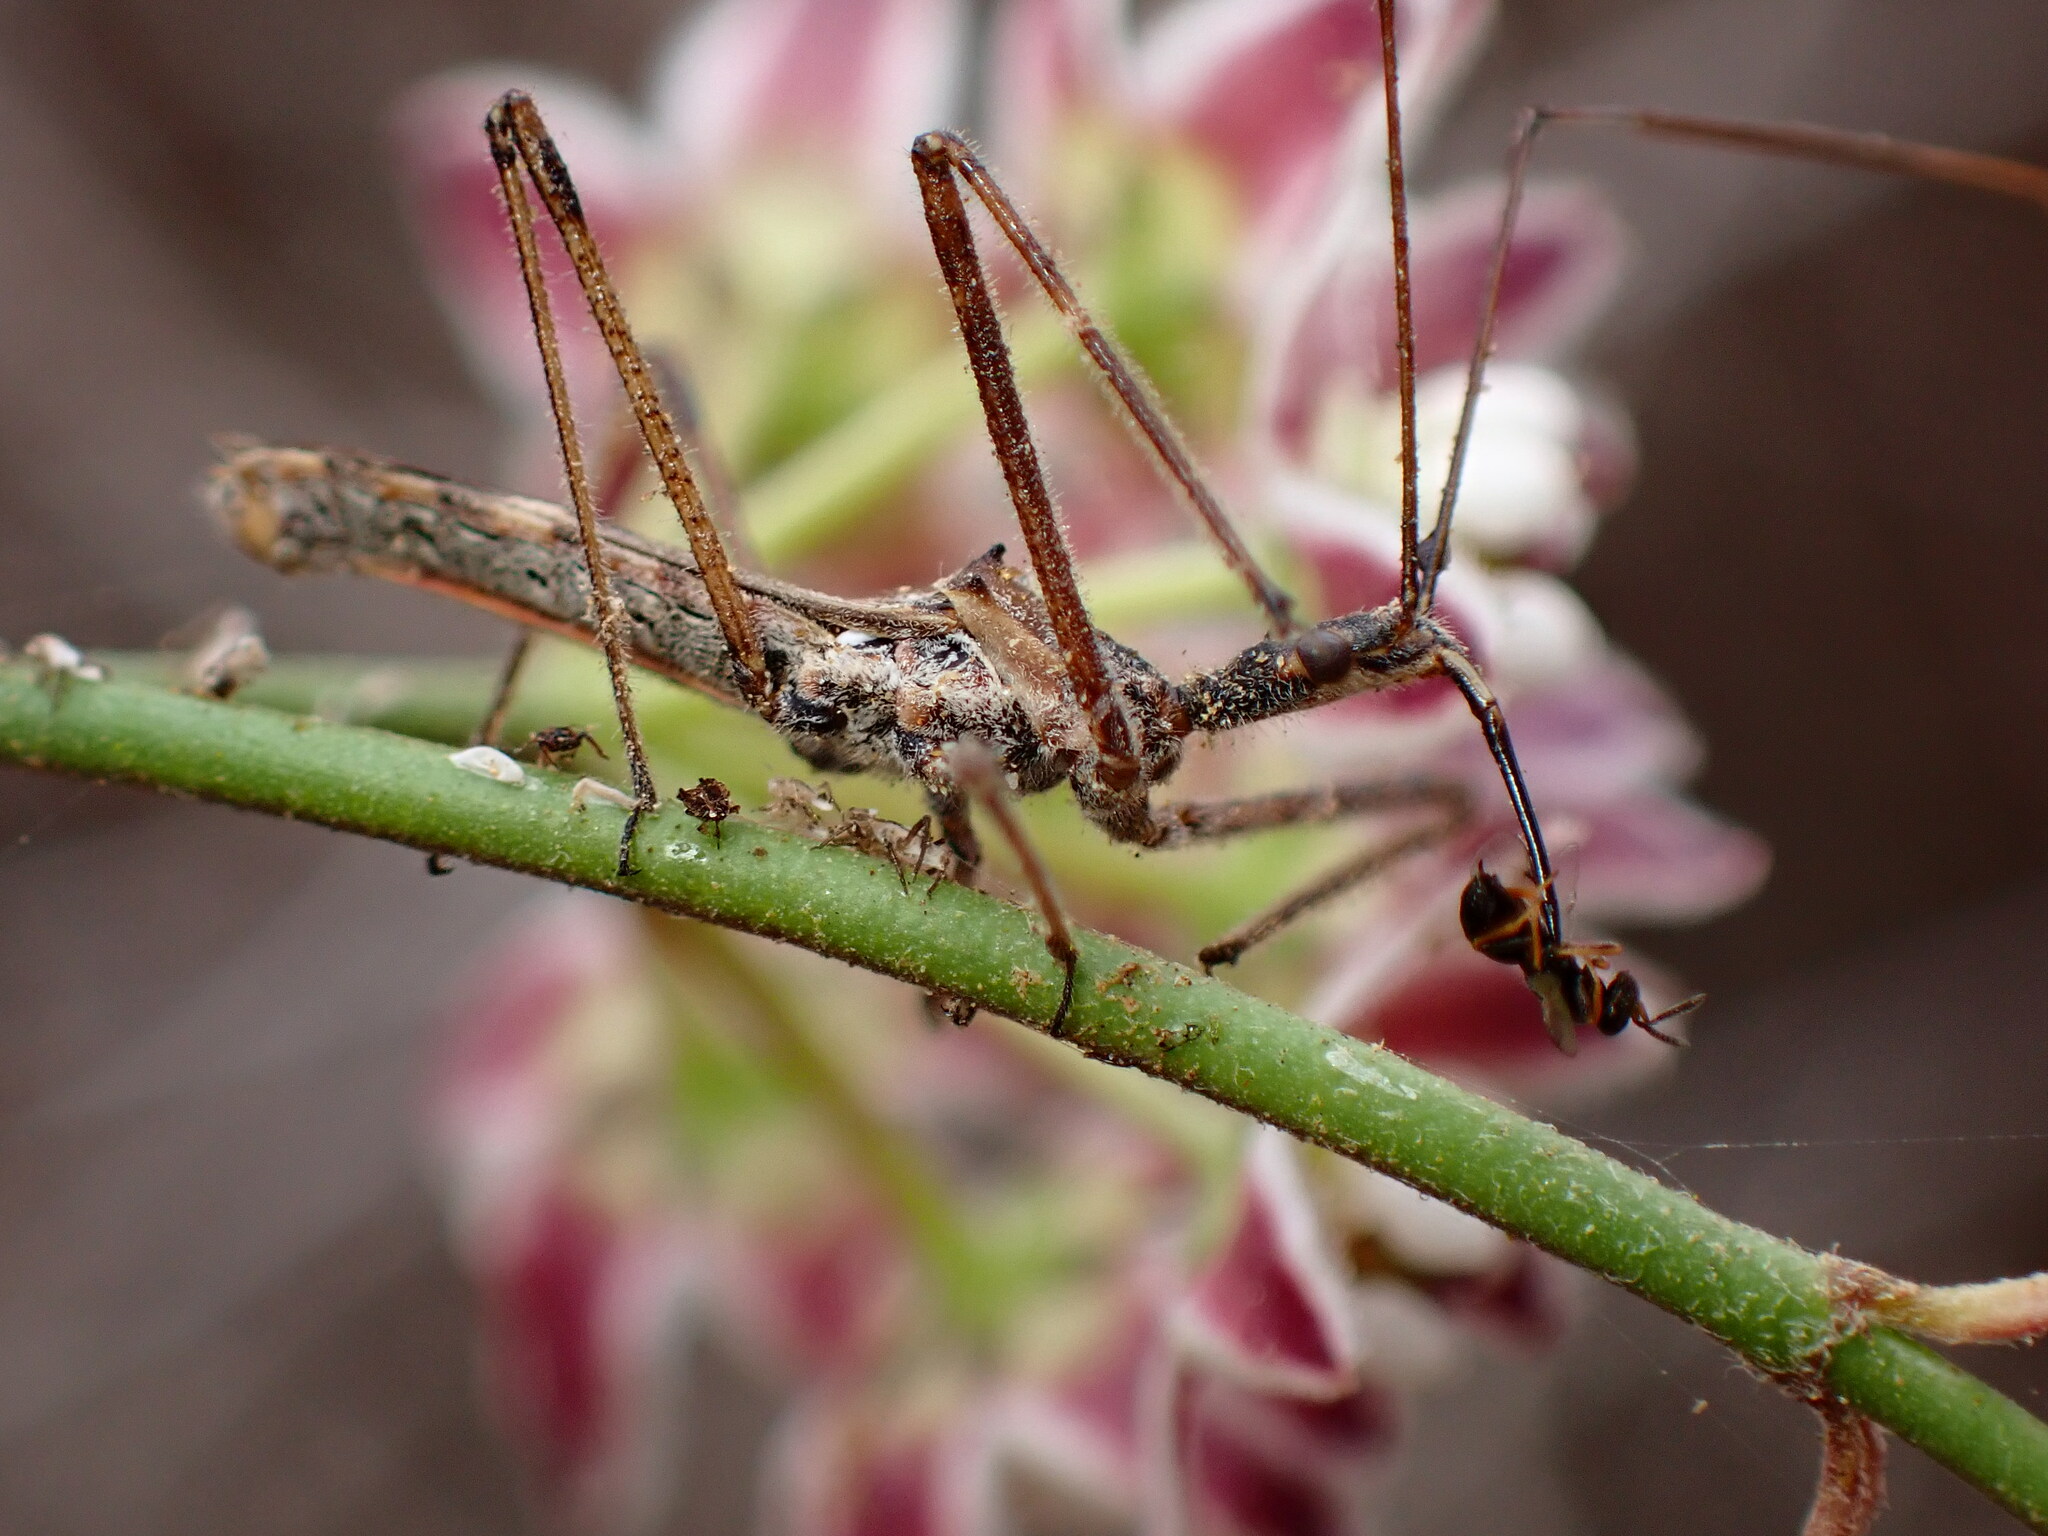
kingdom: Animalia
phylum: Arthropoda
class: Insecta
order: Hemiptera
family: Reduviidae
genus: Zelus
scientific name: Zelus tetracanthus
